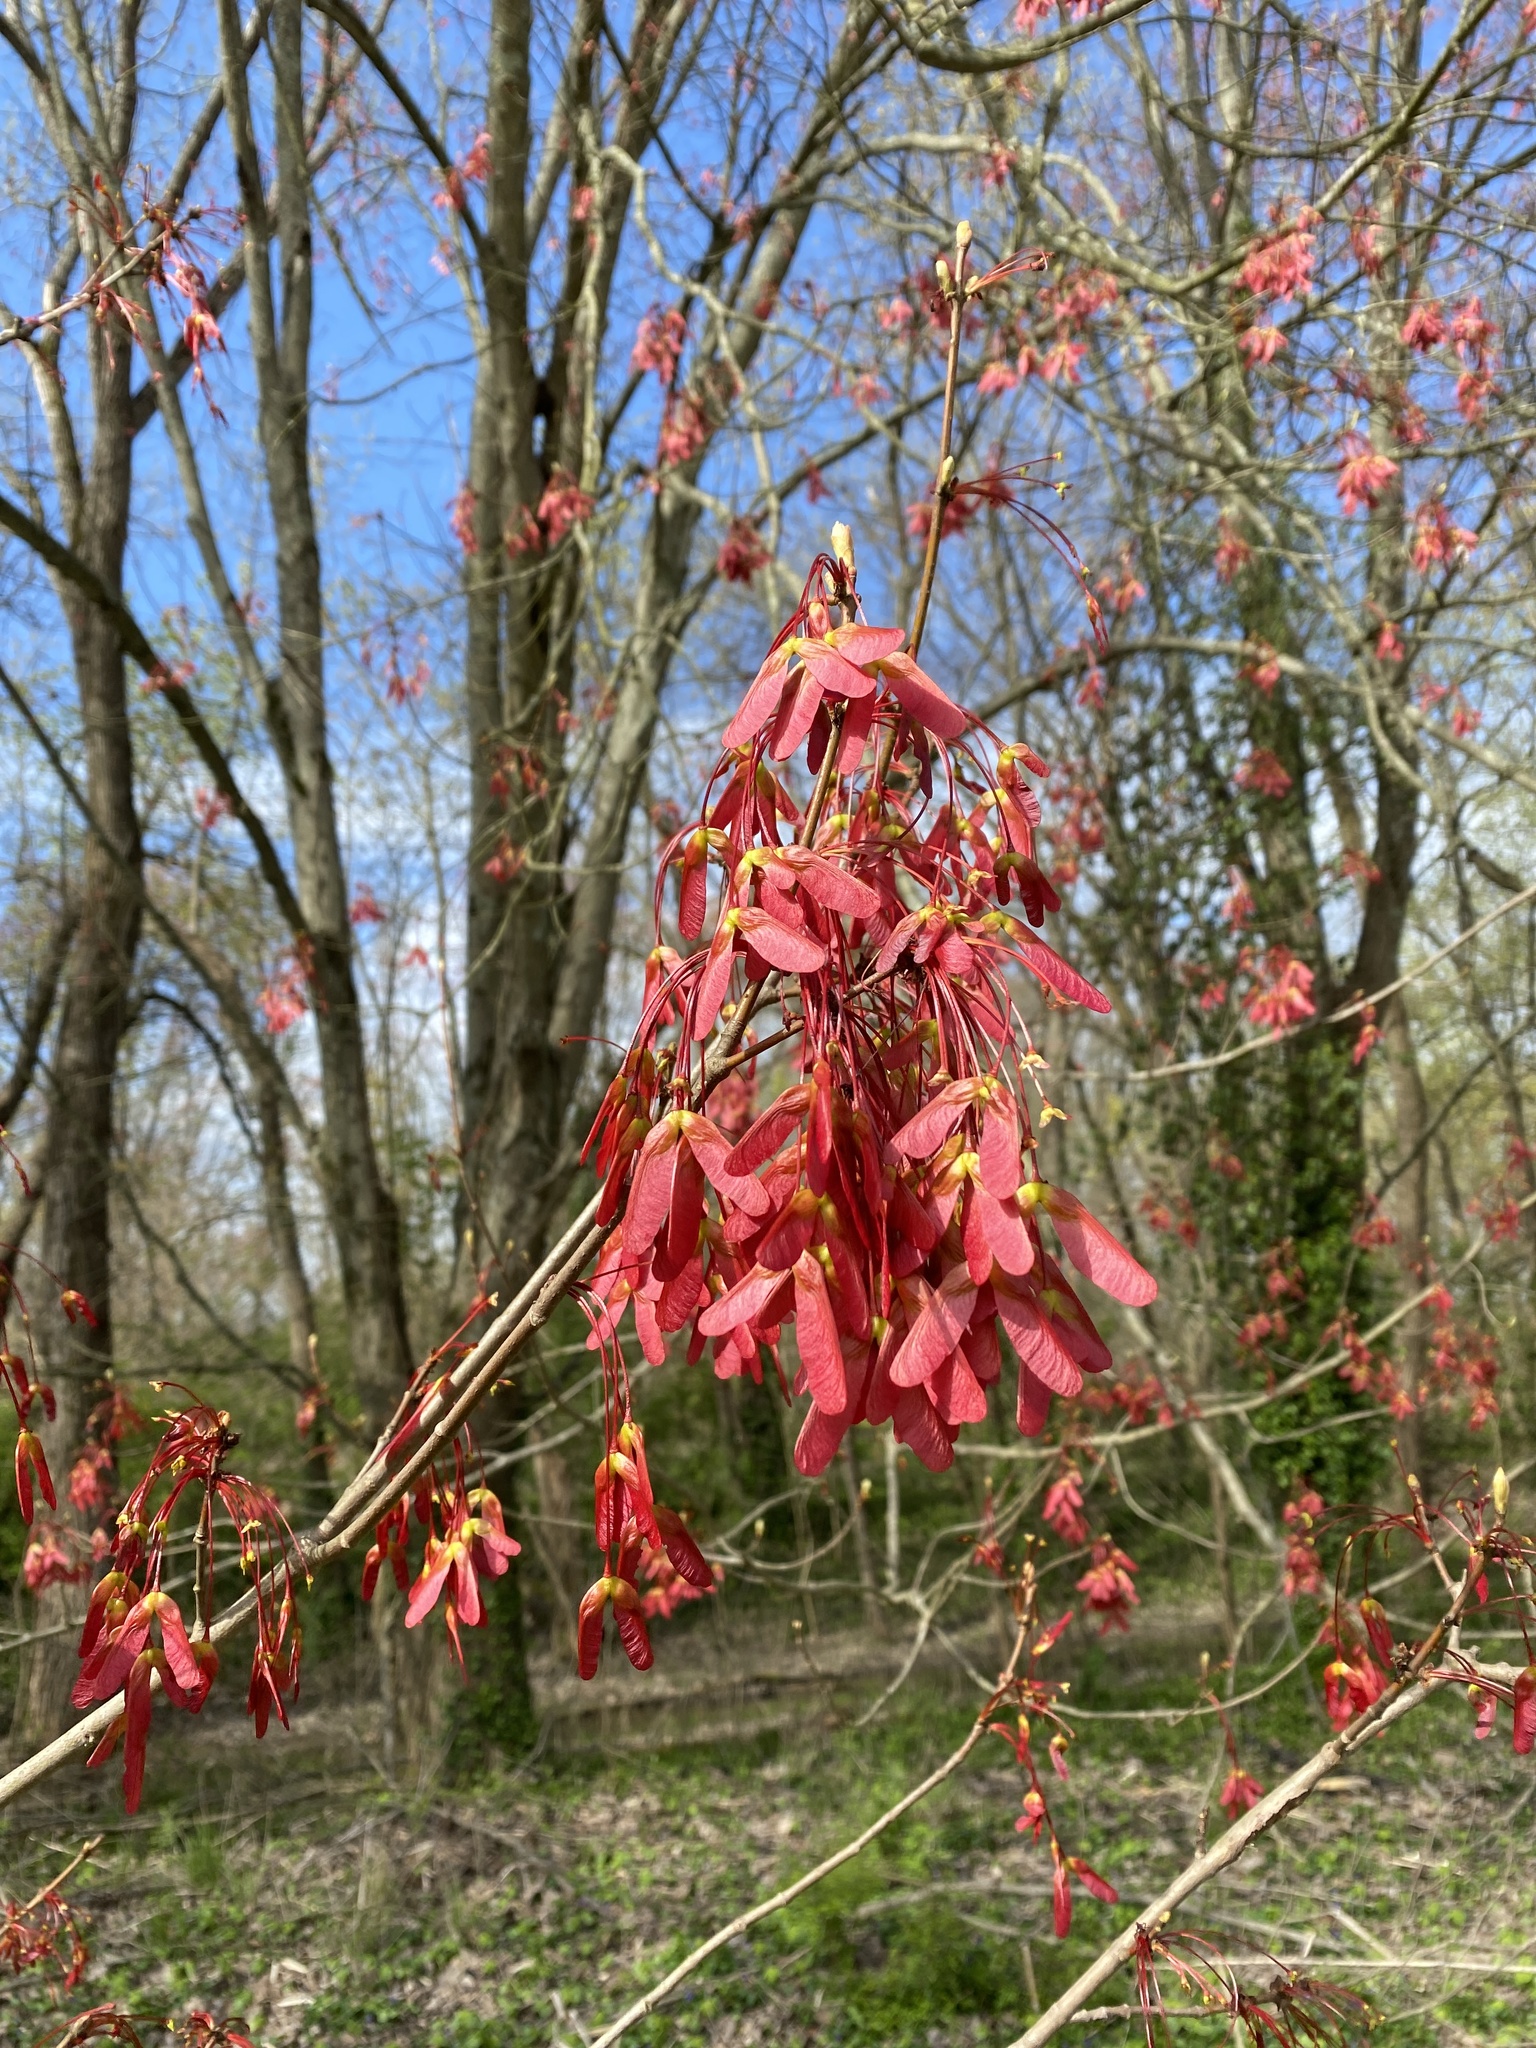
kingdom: Plantae
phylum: Tracheophyta
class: Magnoliopsida
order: Sapindales
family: Sapindaceae
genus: Acer
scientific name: Acer rubrum
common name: Red maple
